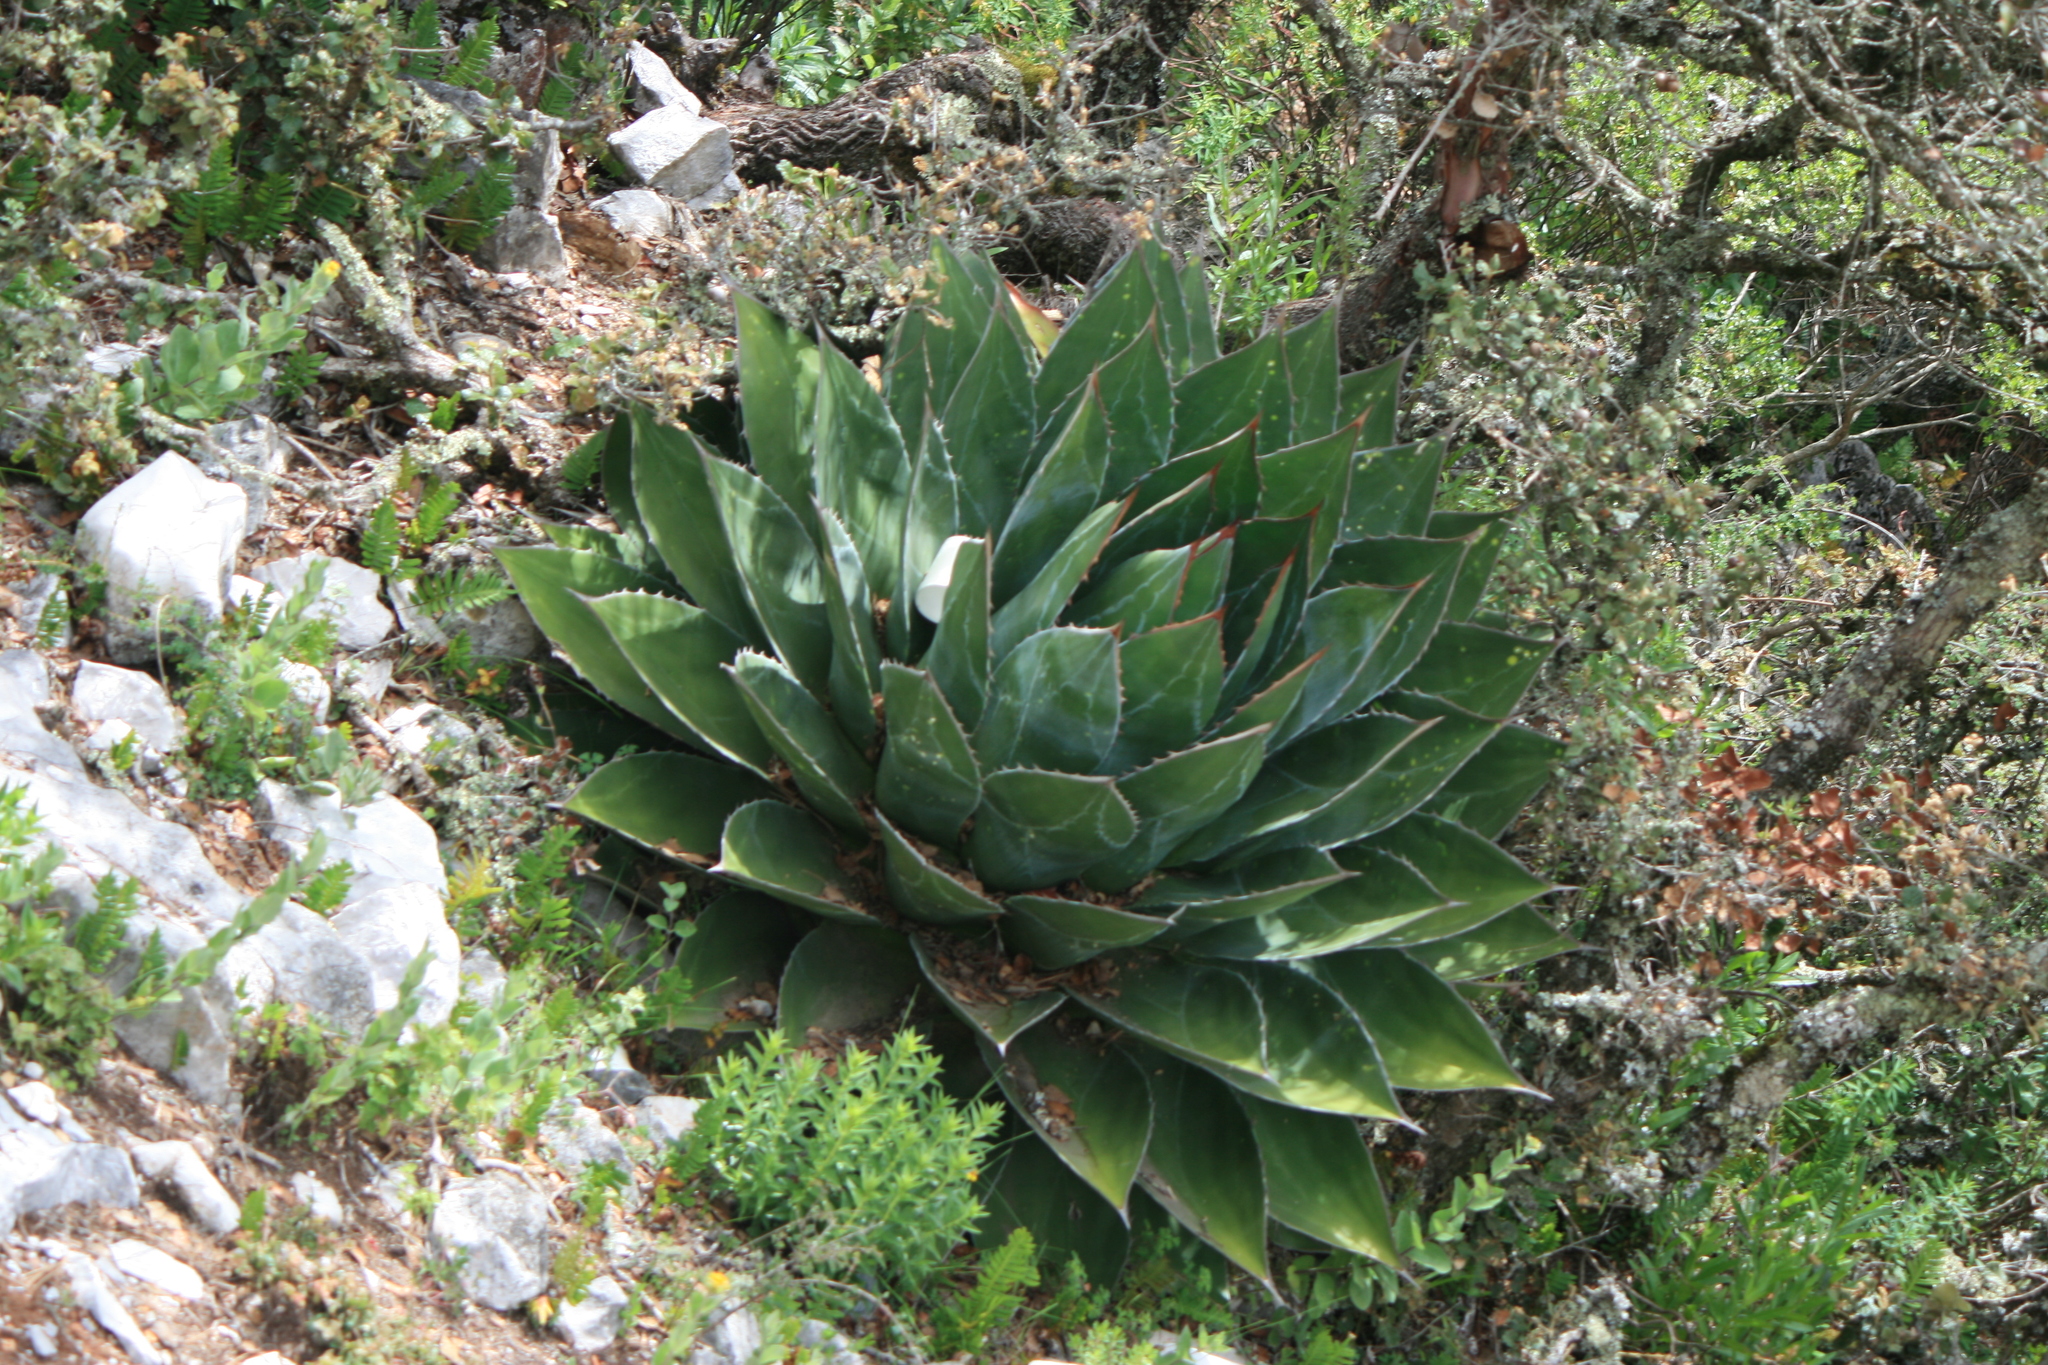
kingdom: Plantae
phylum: Tracheophyta
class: Liliopsida
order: Asparagales
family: Asparagaceae
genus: Agave
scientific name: Agave montana
